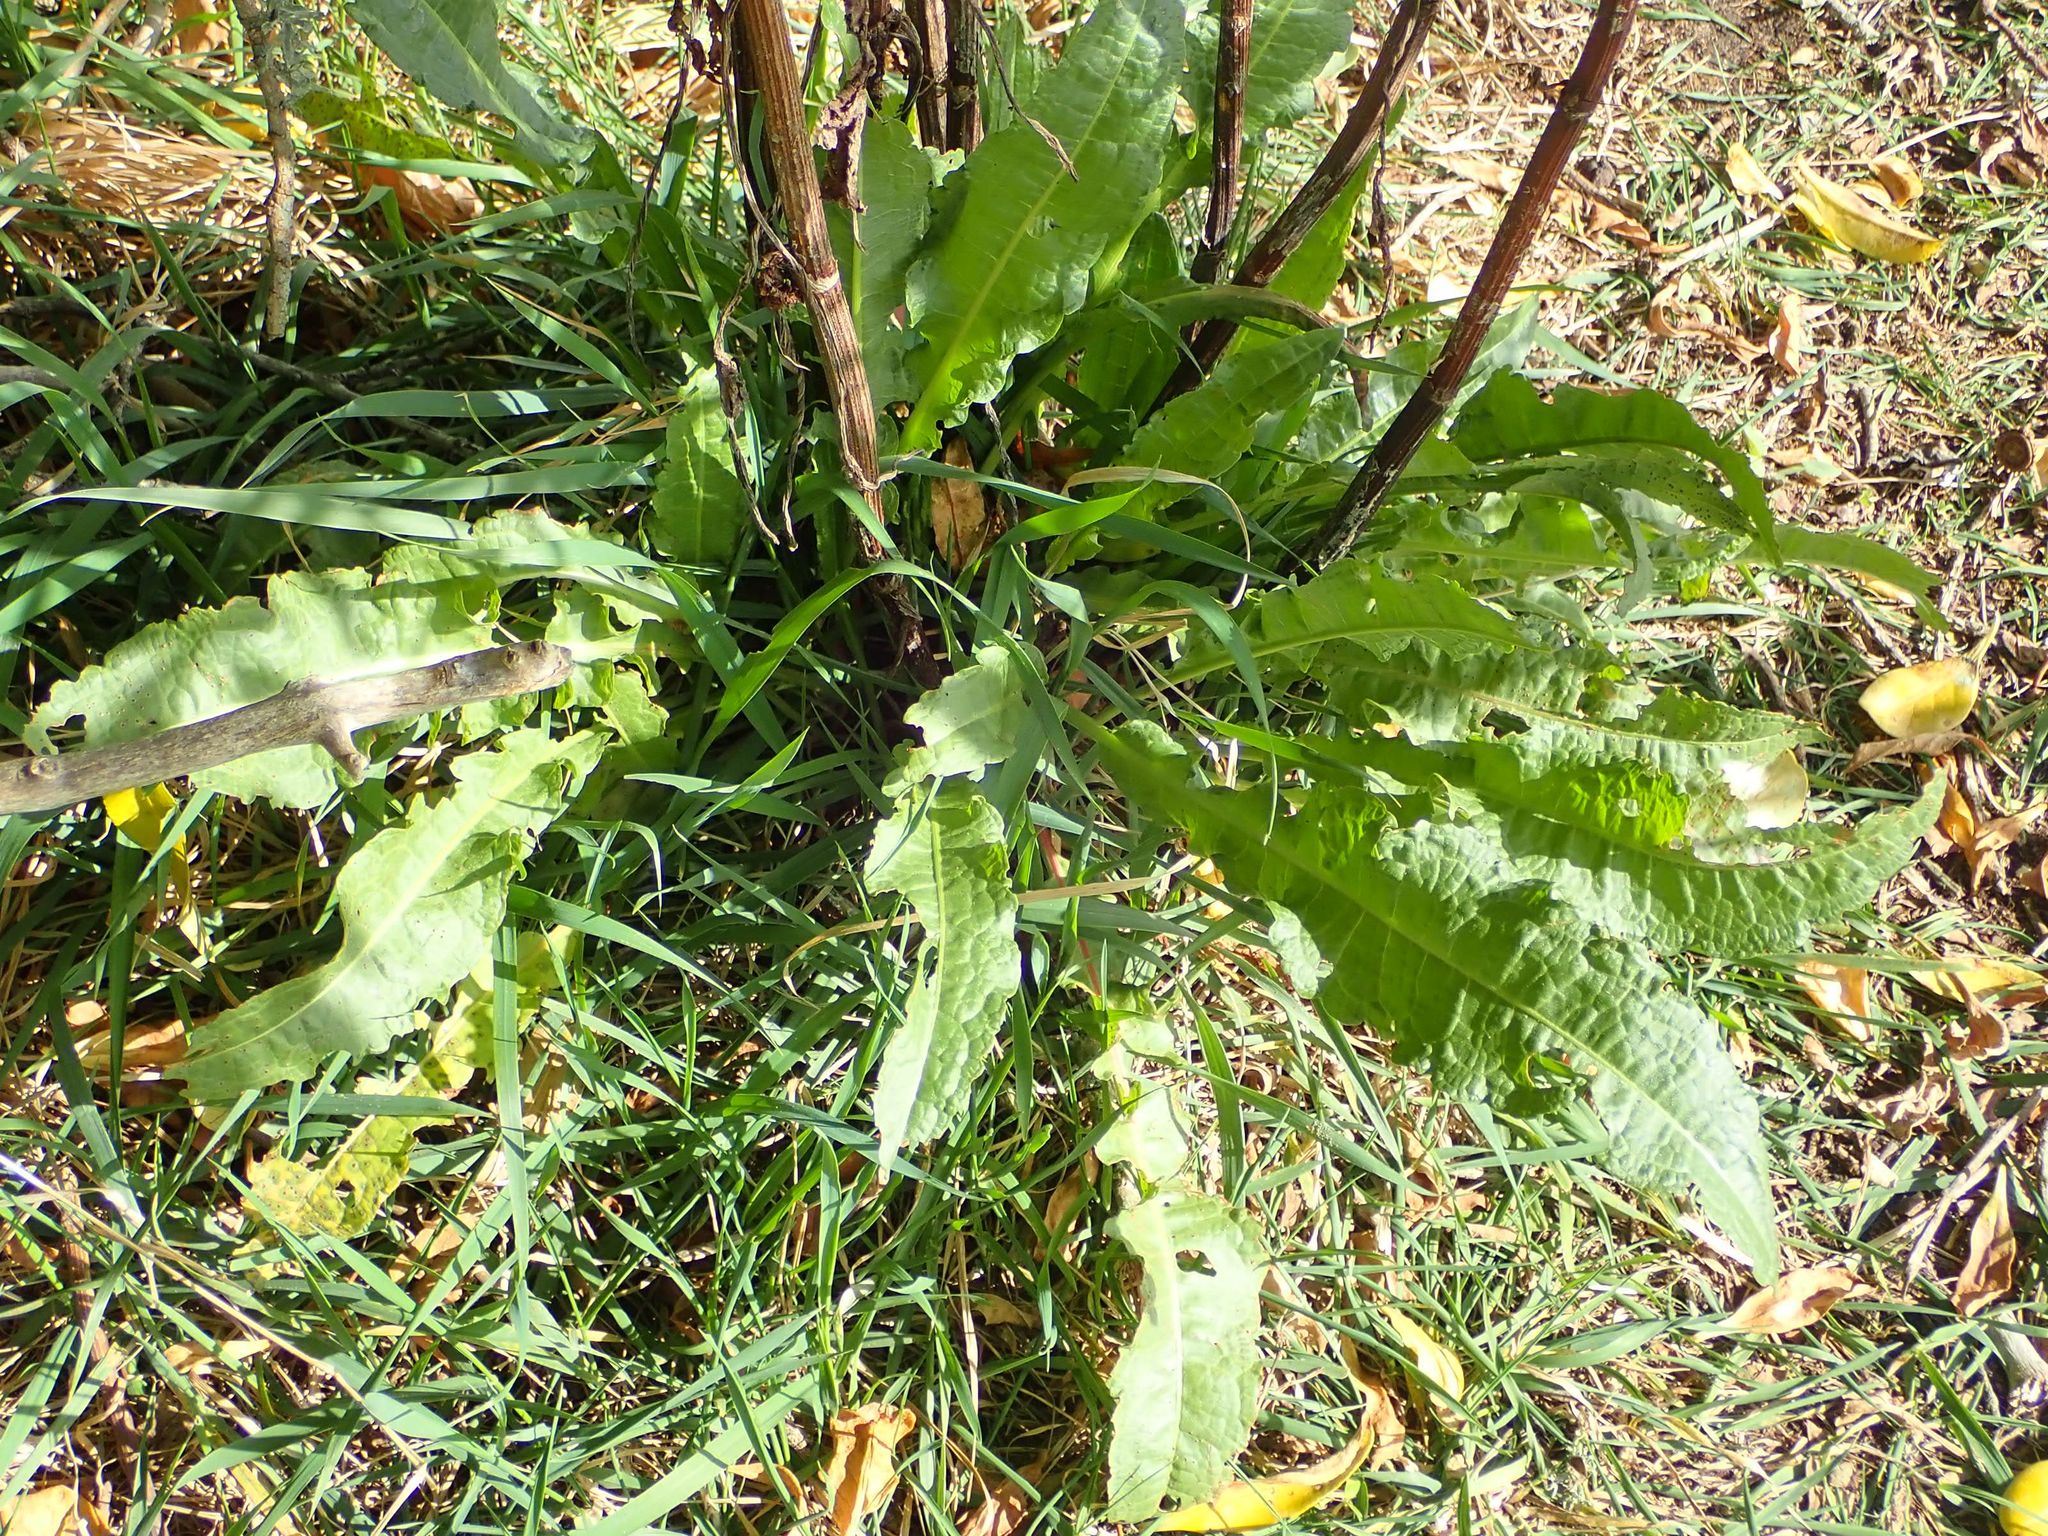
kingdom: Plantae
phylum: Tracheophyta
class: Magnoliopsida
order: Caryophyllales
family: Polygonaceae
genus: Rumex
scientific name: Rumex crispus
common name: Curled dock
